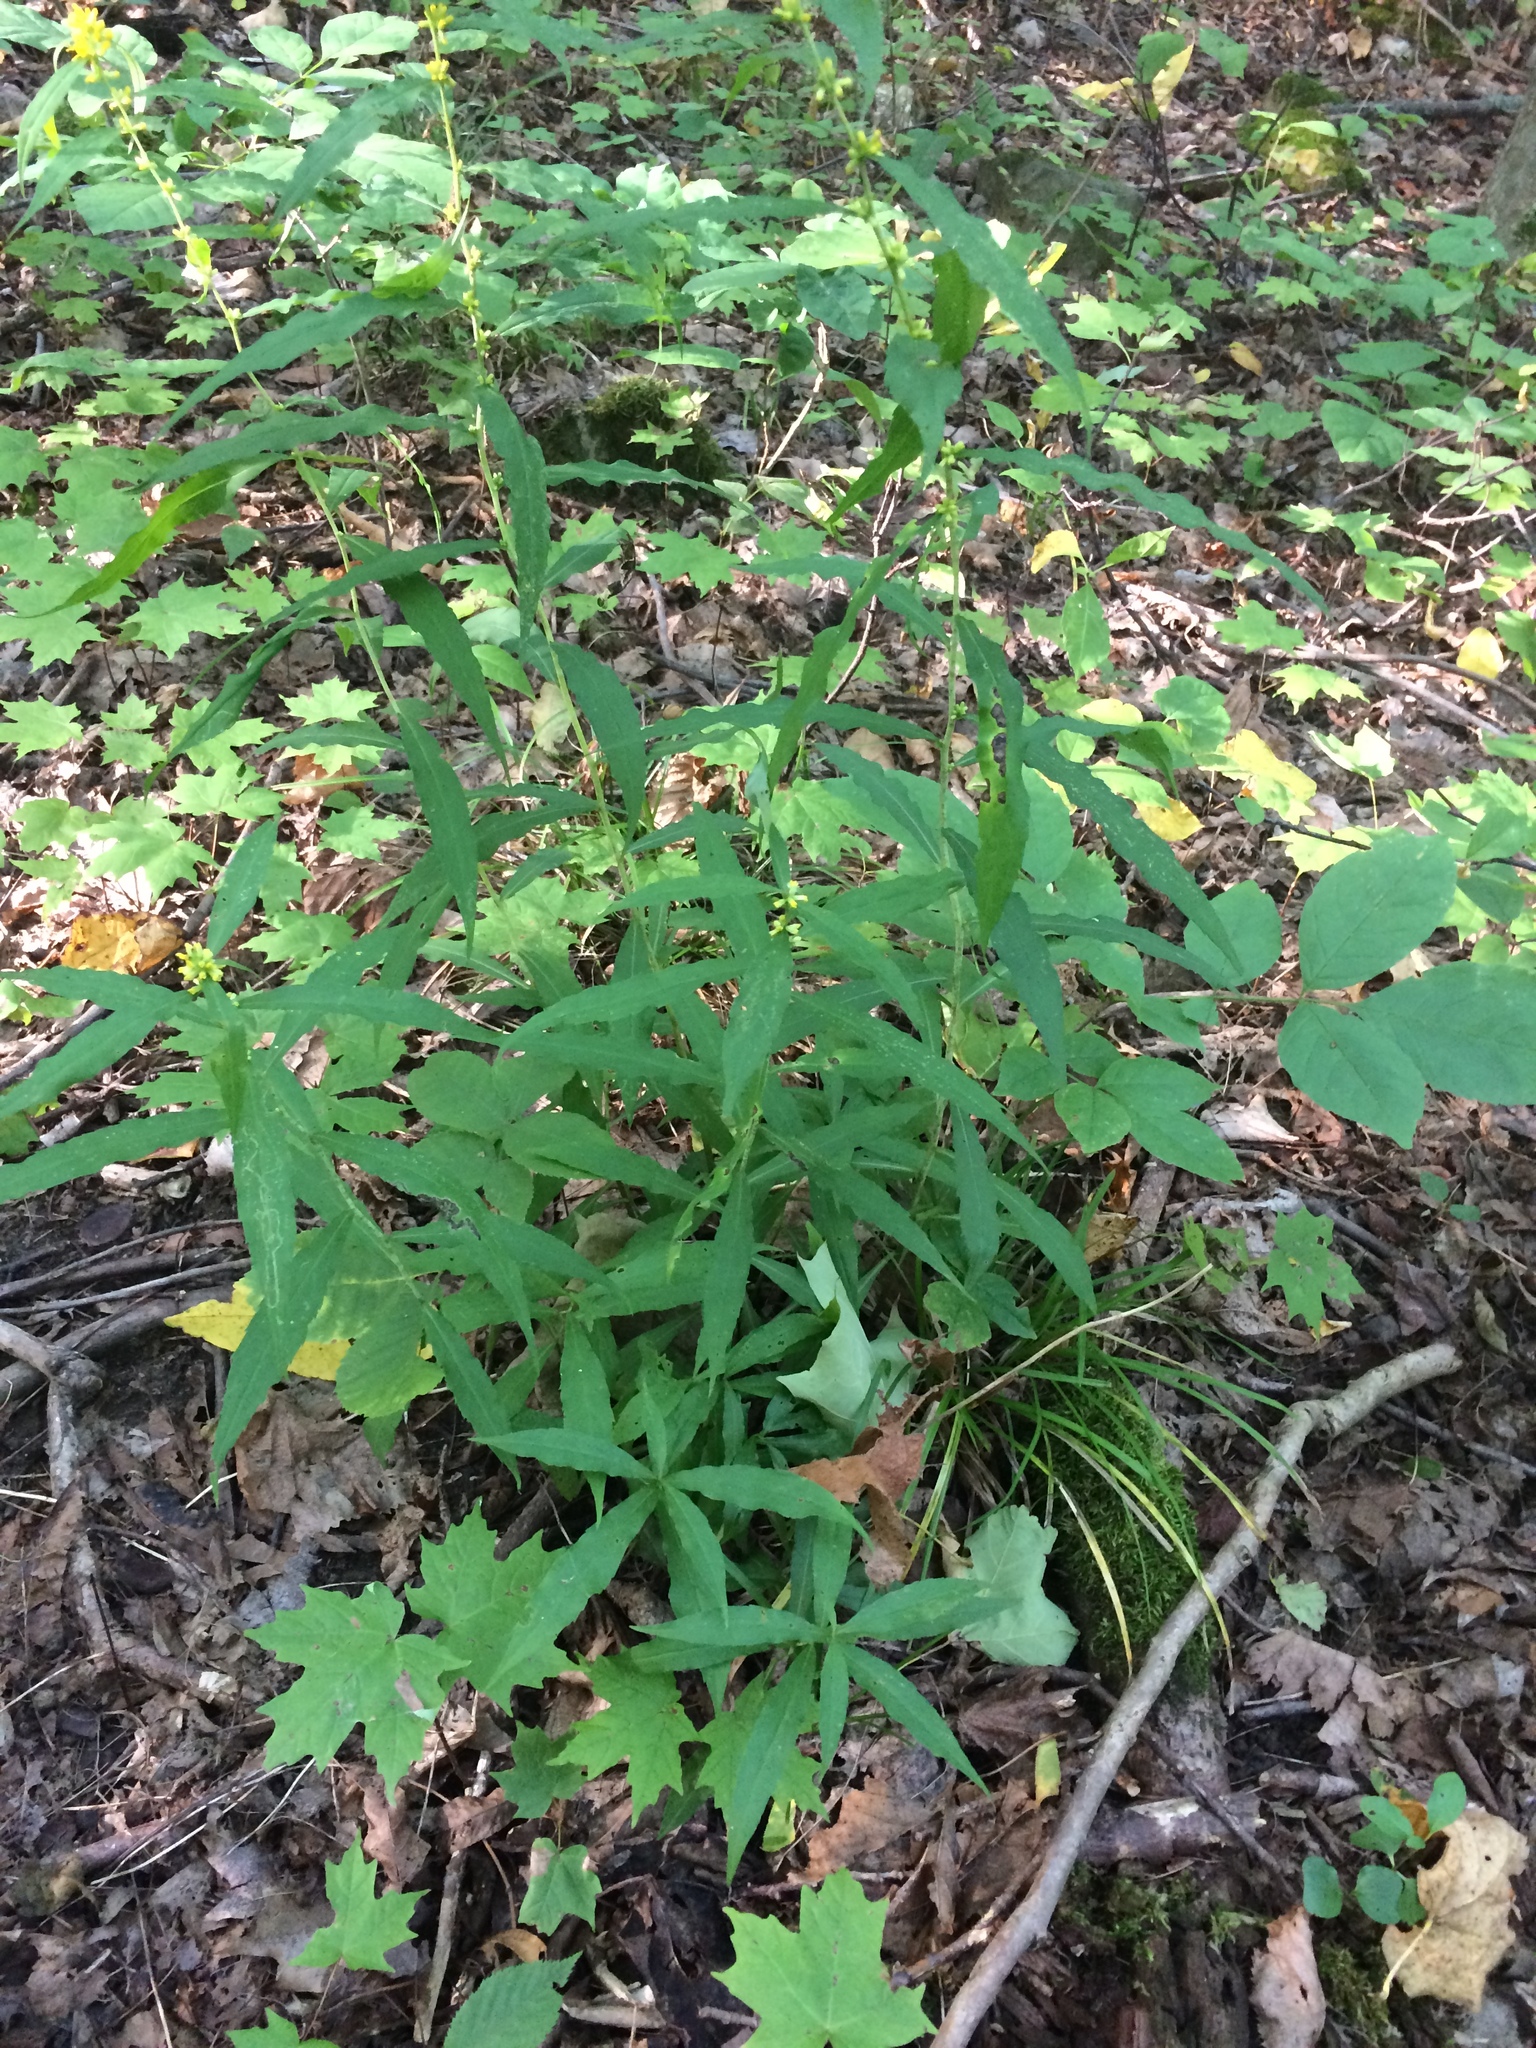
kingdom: Plantae
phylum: Tracheophyta
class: Magnoliopsida
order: Asterales
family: Asteraceae
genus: Solidago
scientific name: Solidago caesia
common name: Woodland goldenrod
